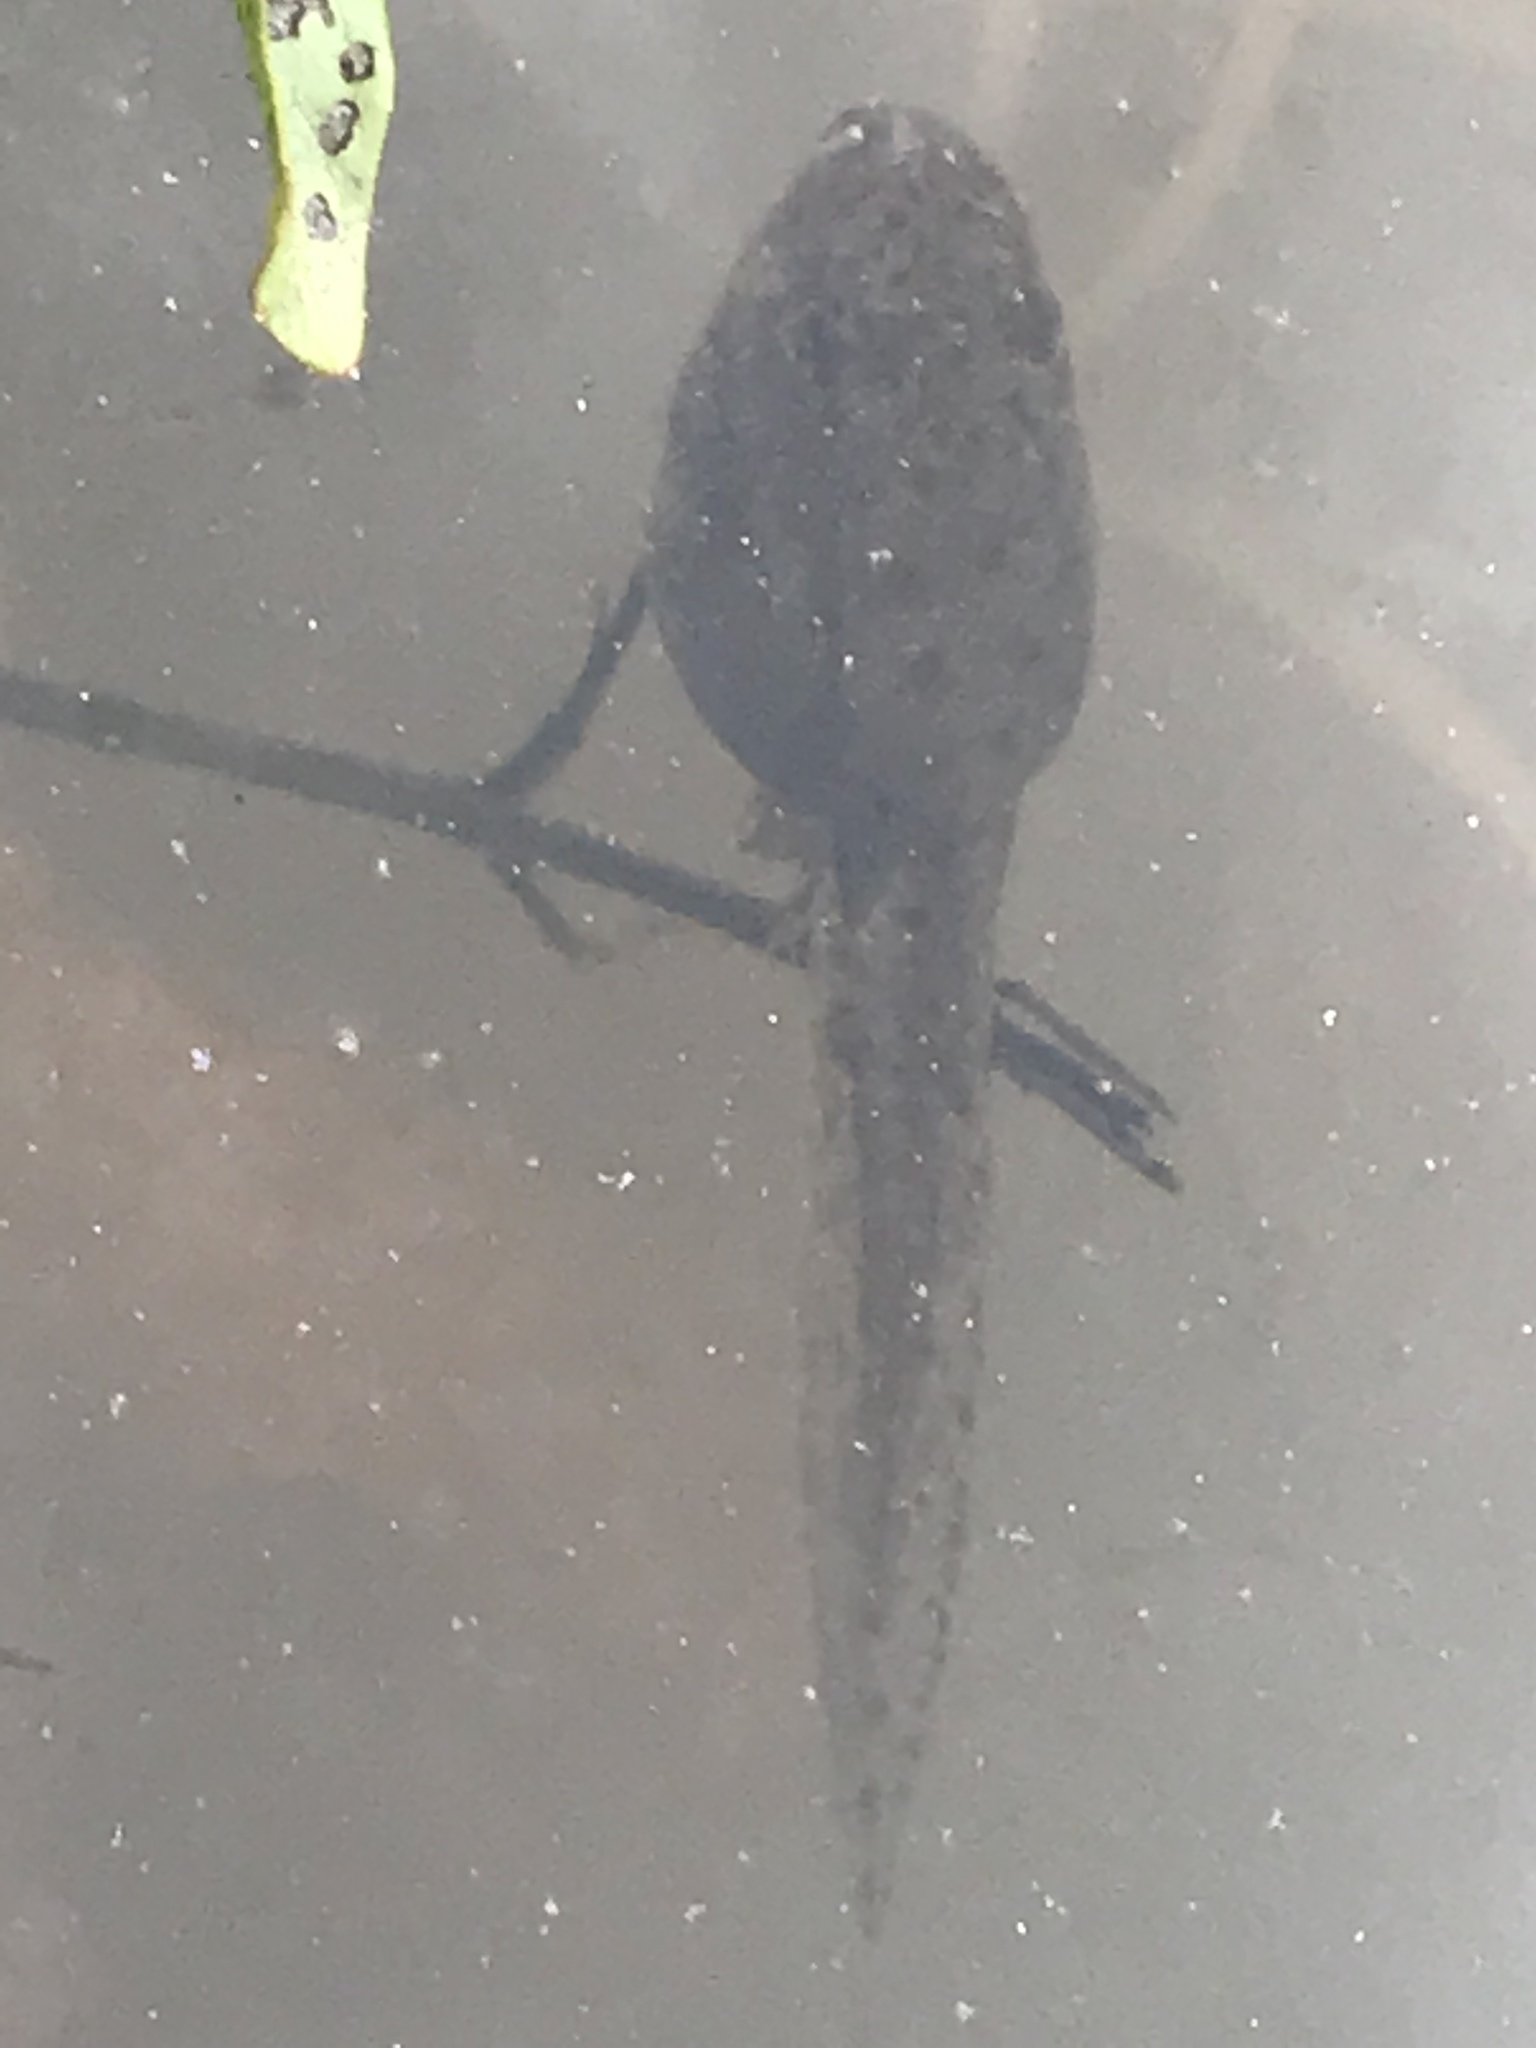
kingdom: Animalia
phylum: Chordata
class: Amphibia
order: Anura
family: Ranidae
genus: Lithobates
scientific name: Lithobates clamitans
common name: Green frog
